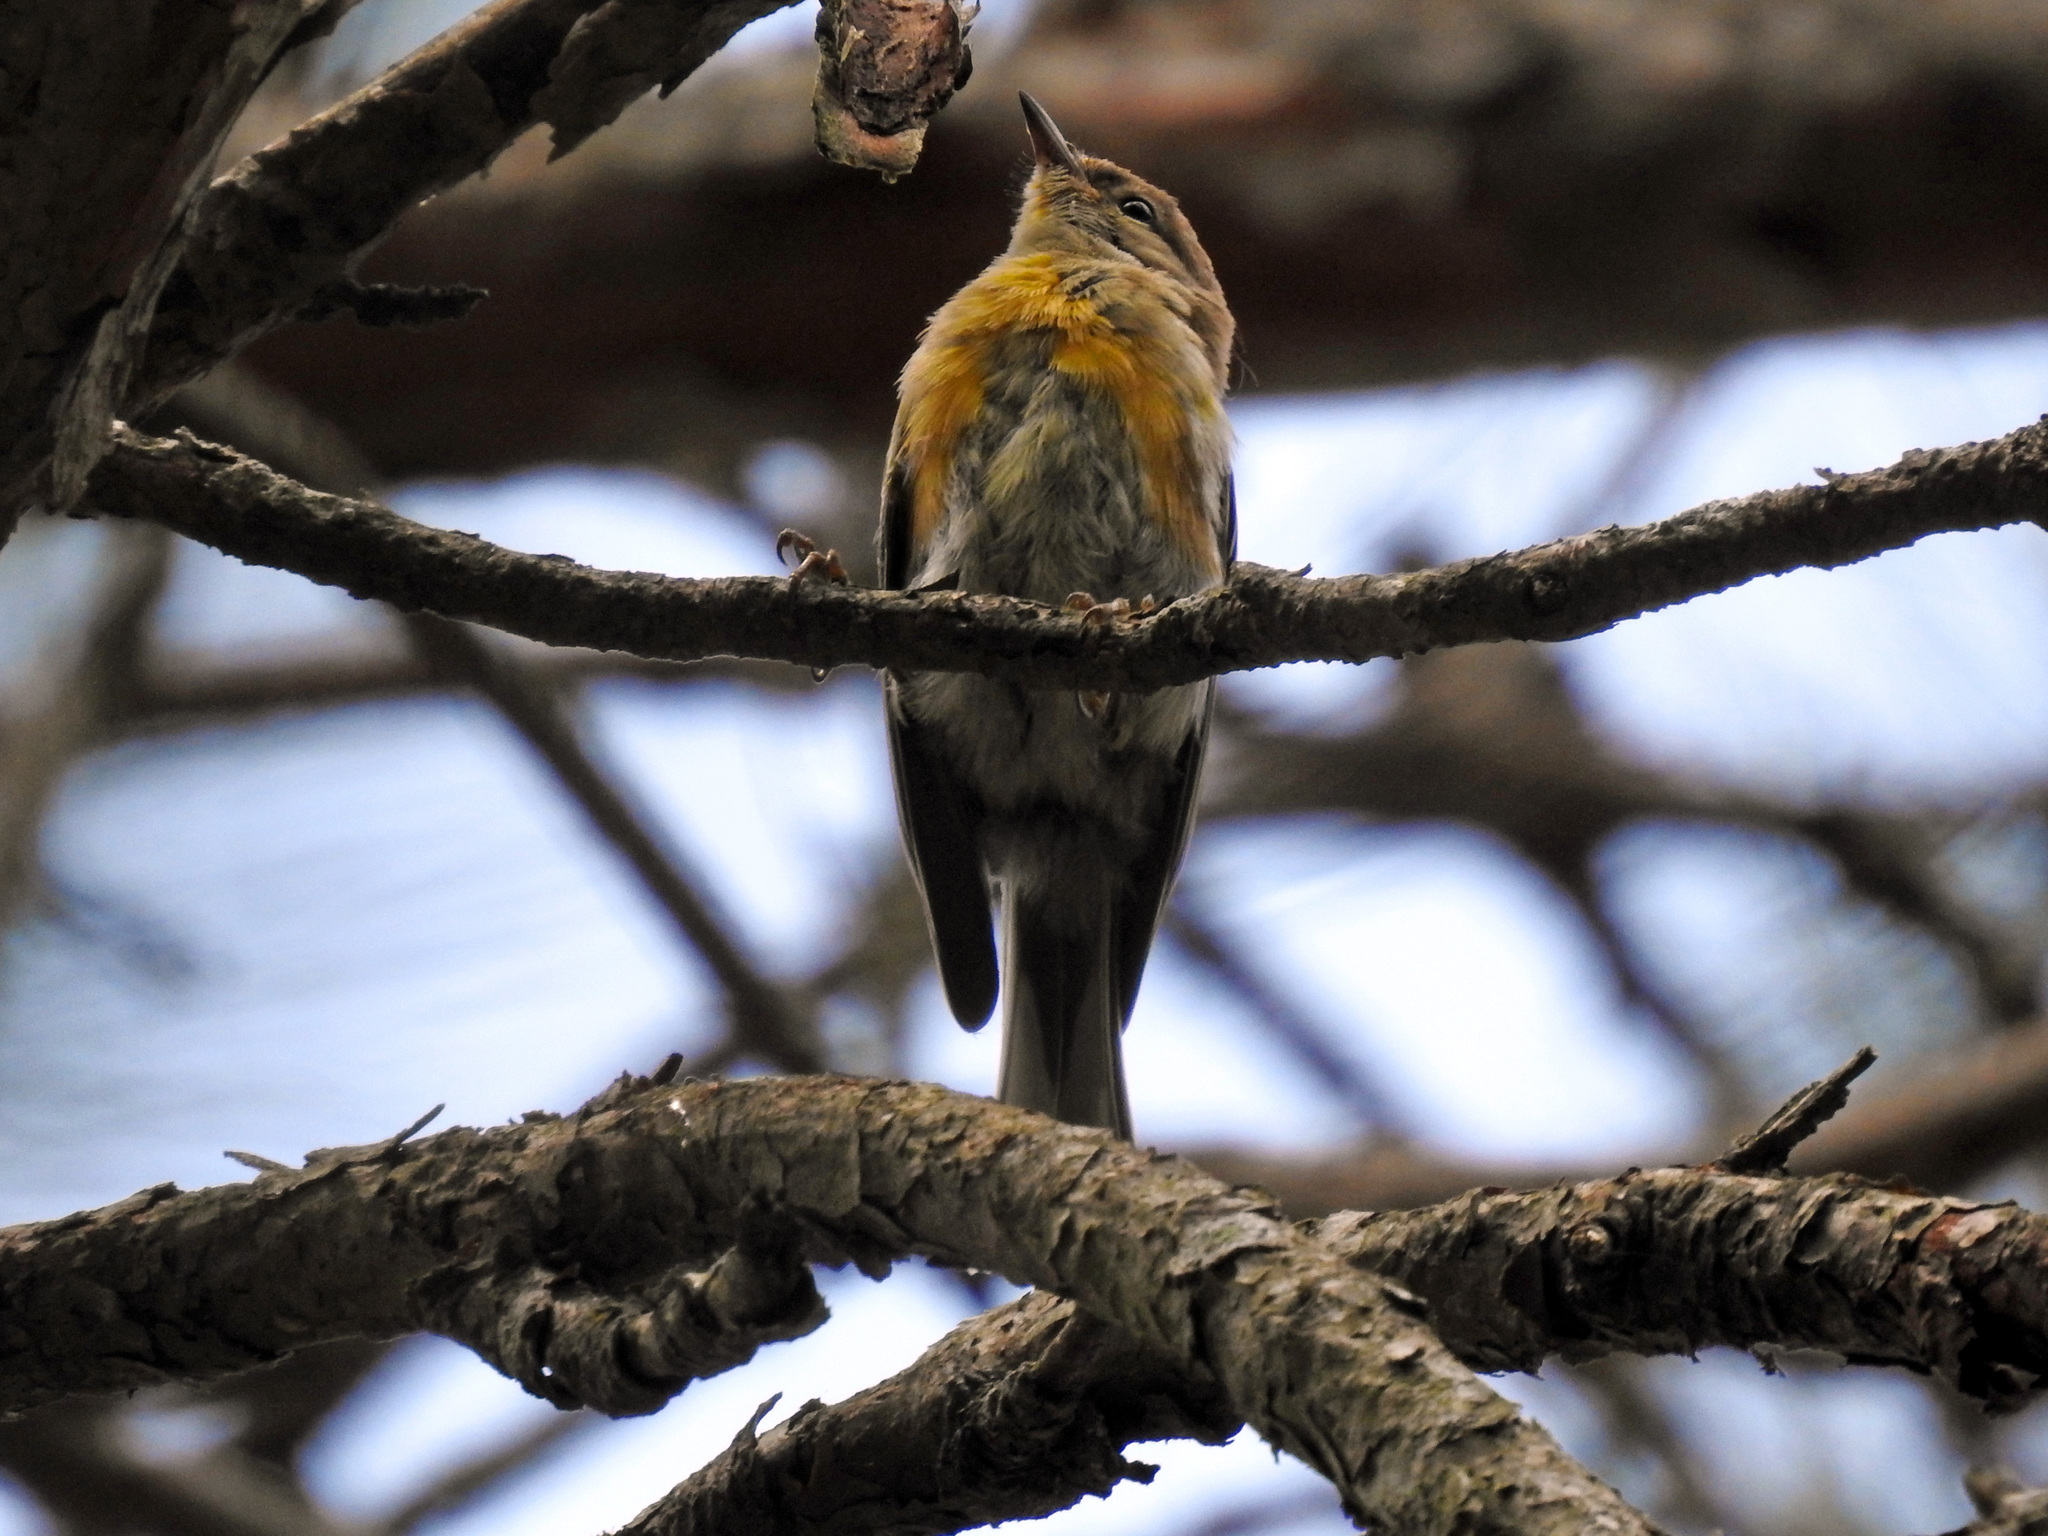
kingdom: Animalia
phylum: Chordata
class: Aves
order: Passeriformes
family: Parulidae
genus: Setophaga
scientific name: Setophaga pinus
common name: Pine warbler
